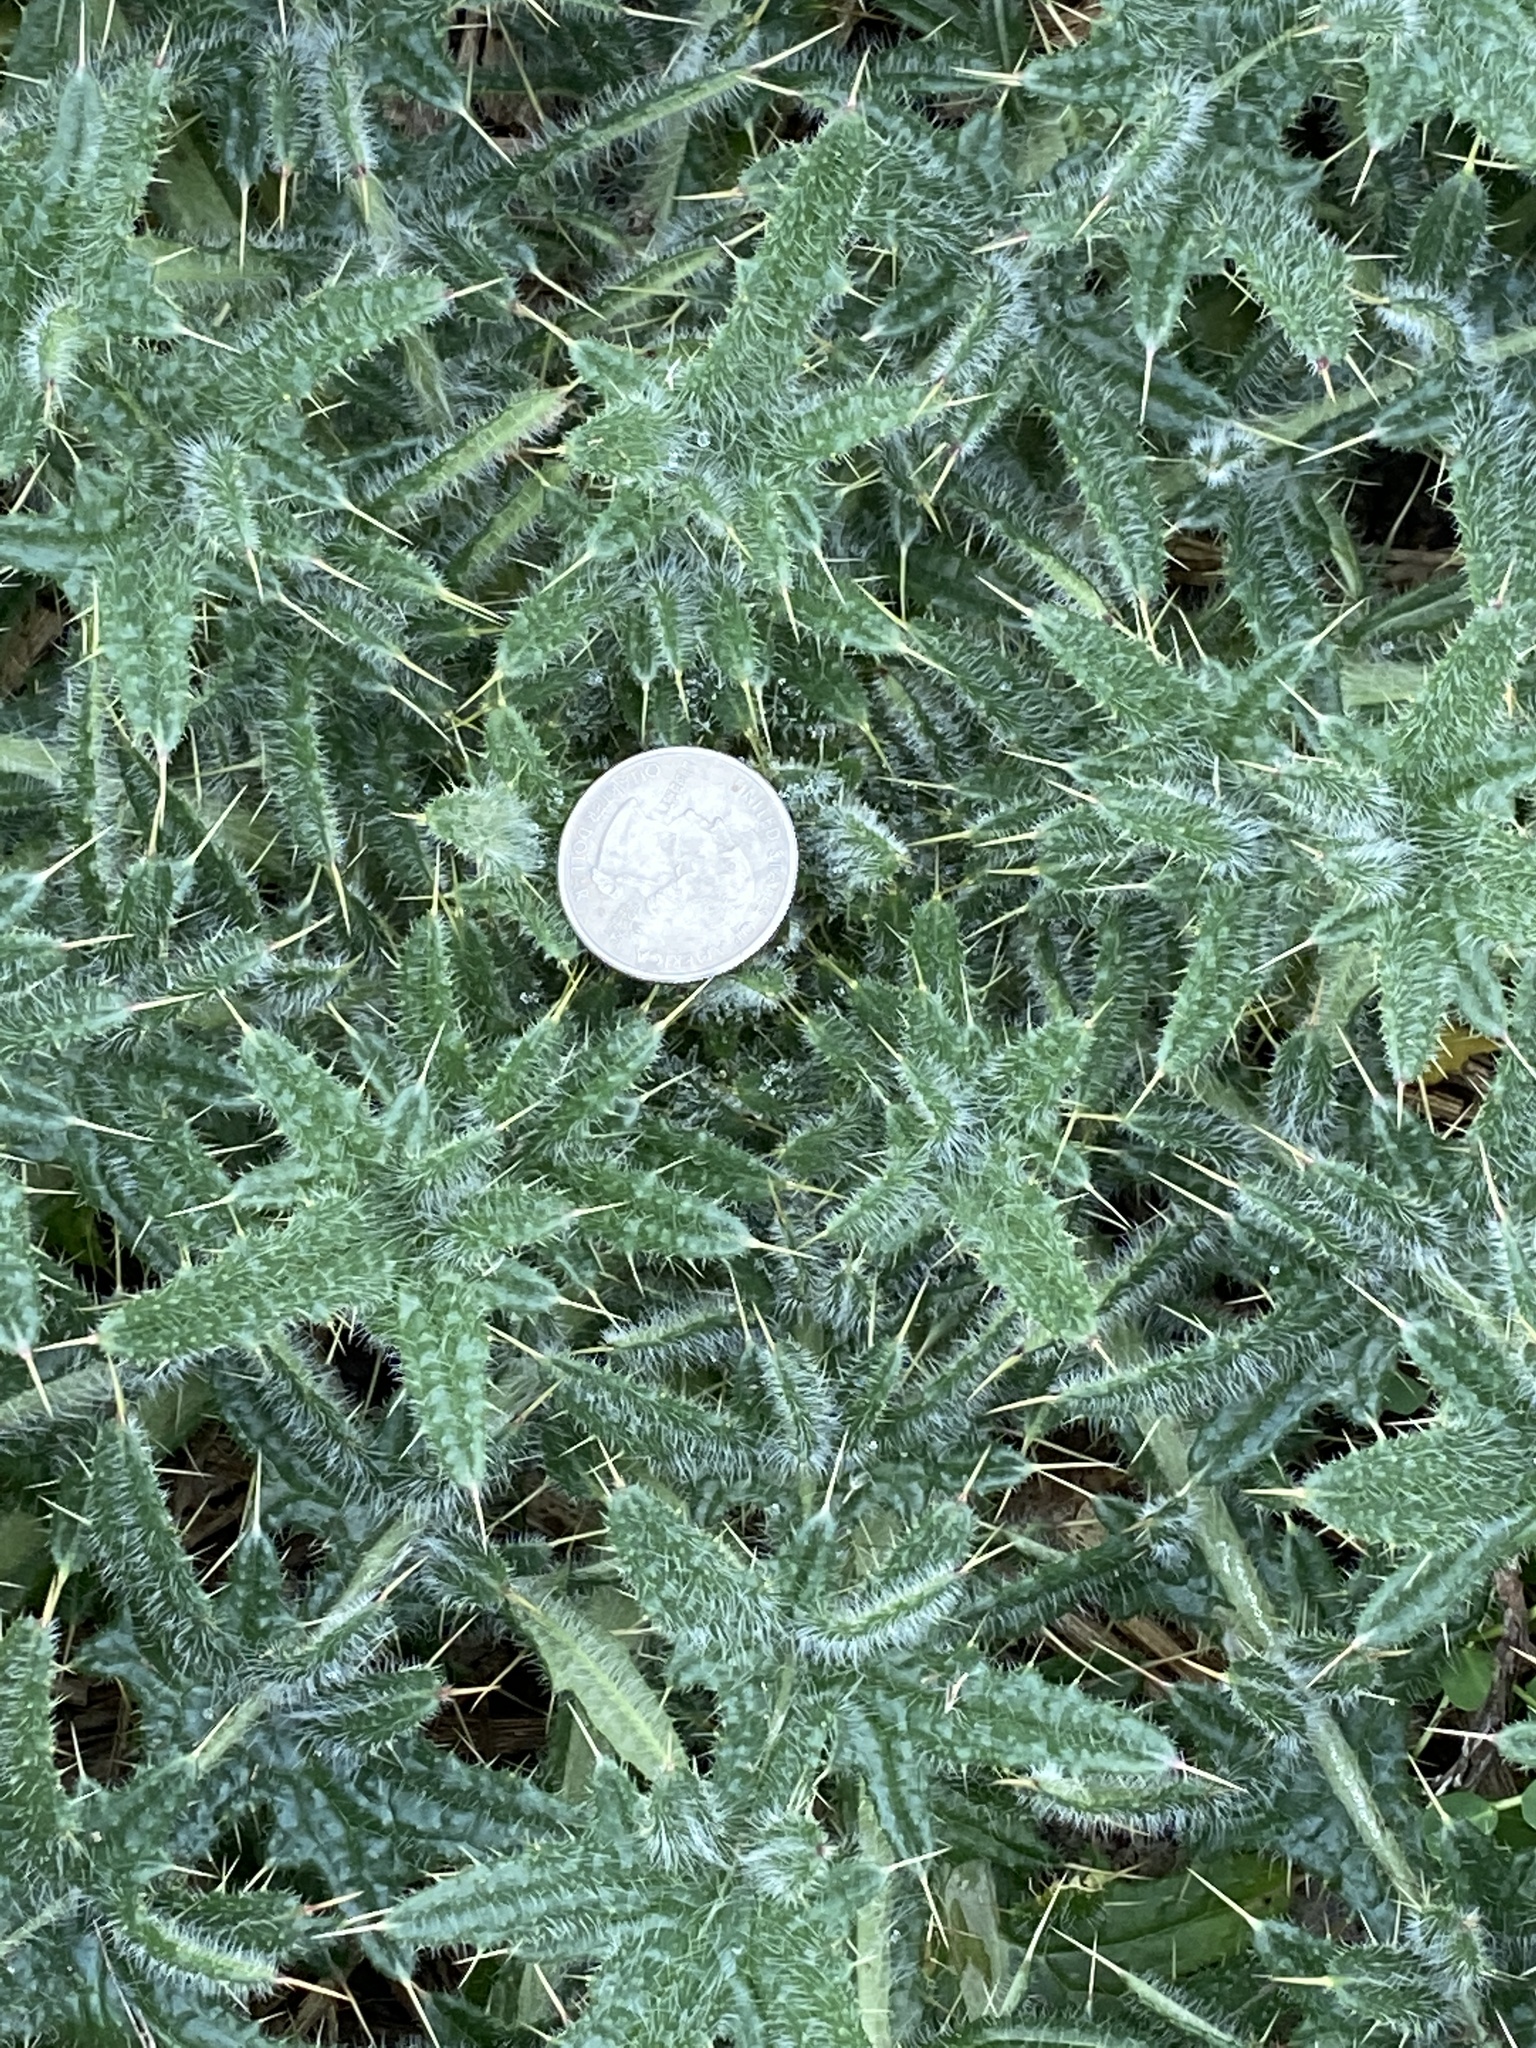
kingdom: Plantae
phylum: Tracheophyta
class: Magnoliopsida
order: Asterales
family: Asteraceae
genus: Cirsium
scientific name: Cirsium vulgare
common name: Bull thistle
